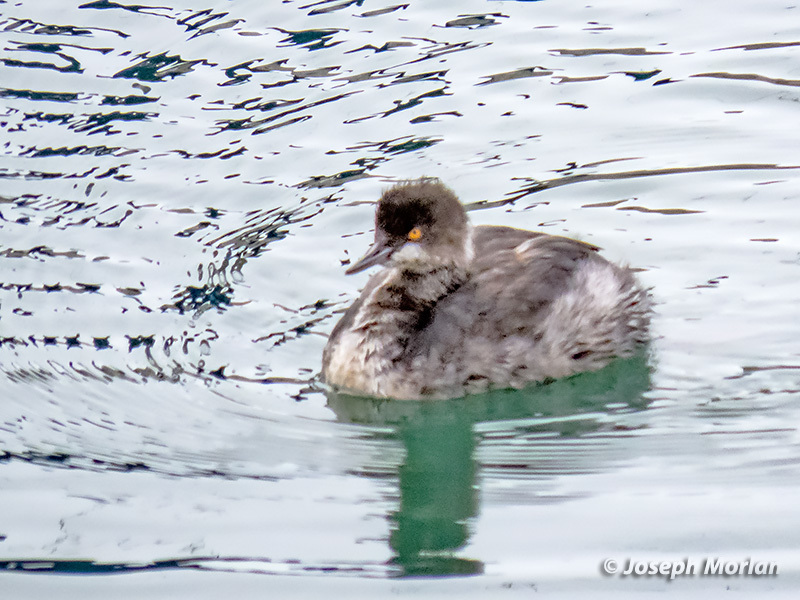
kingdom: Animalia
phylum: Chordata
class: Aves
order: Podicipediformes
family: Podicipedidae
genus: Podiceps
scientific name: Podiceps nigricollis
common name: Black-necked grebe
